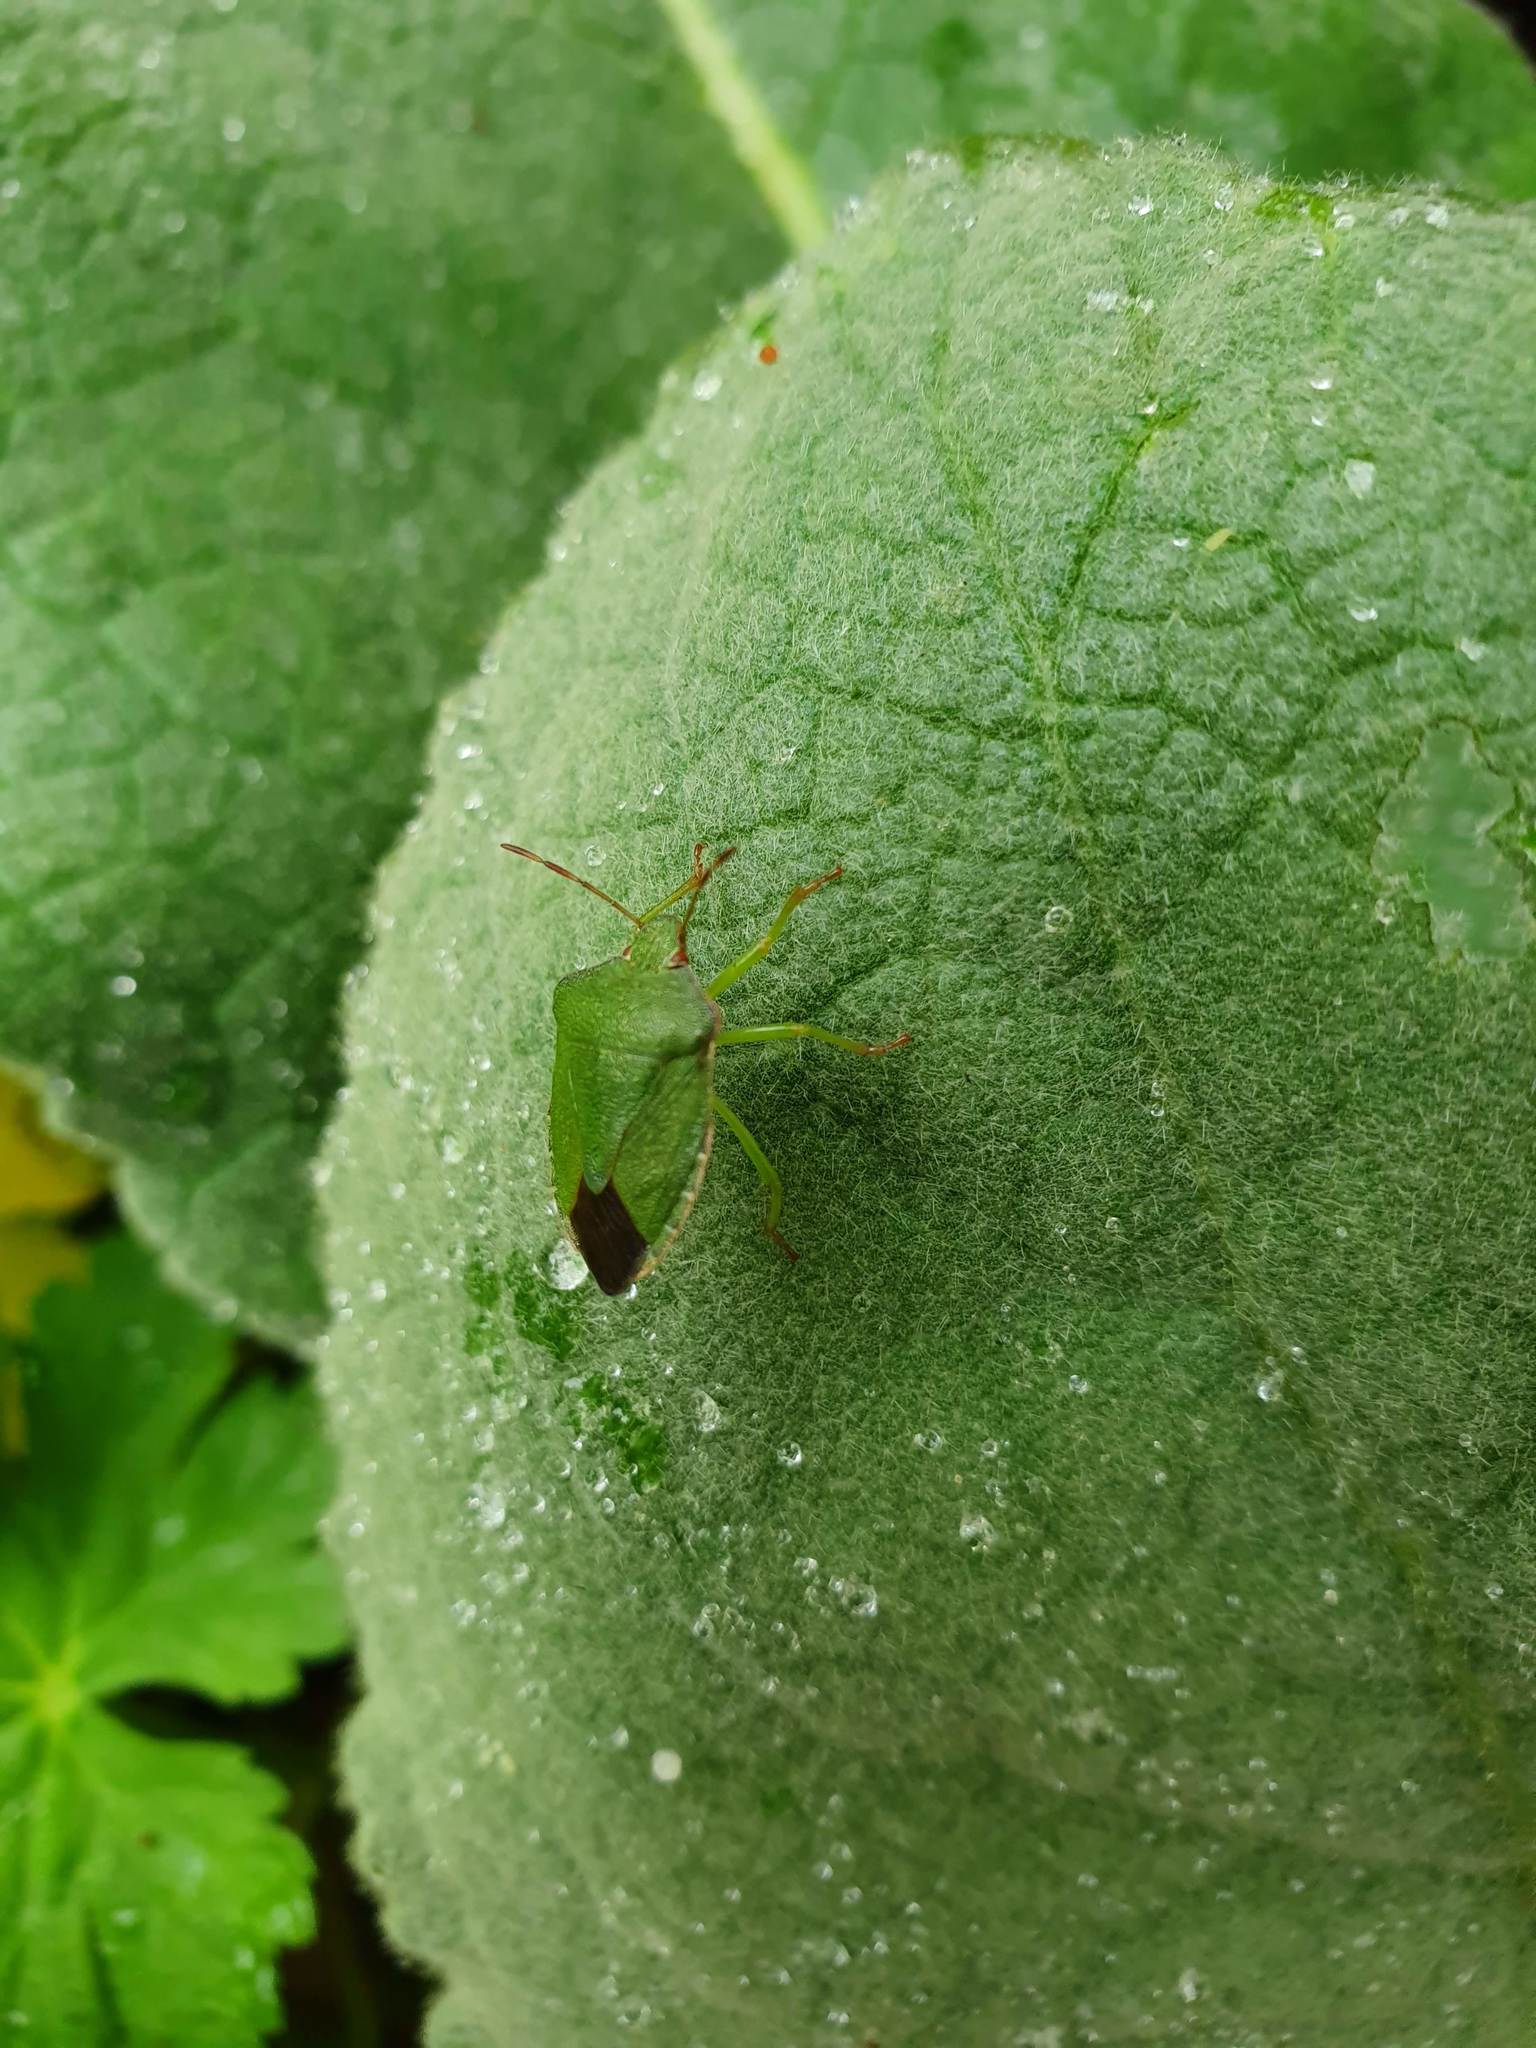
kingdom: Animalia
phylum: Arthropoda
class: Insecta
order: Hemiptera
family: Pentatomidae
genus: Palomena
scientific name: Palomena prasina
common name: Green shieldbug
